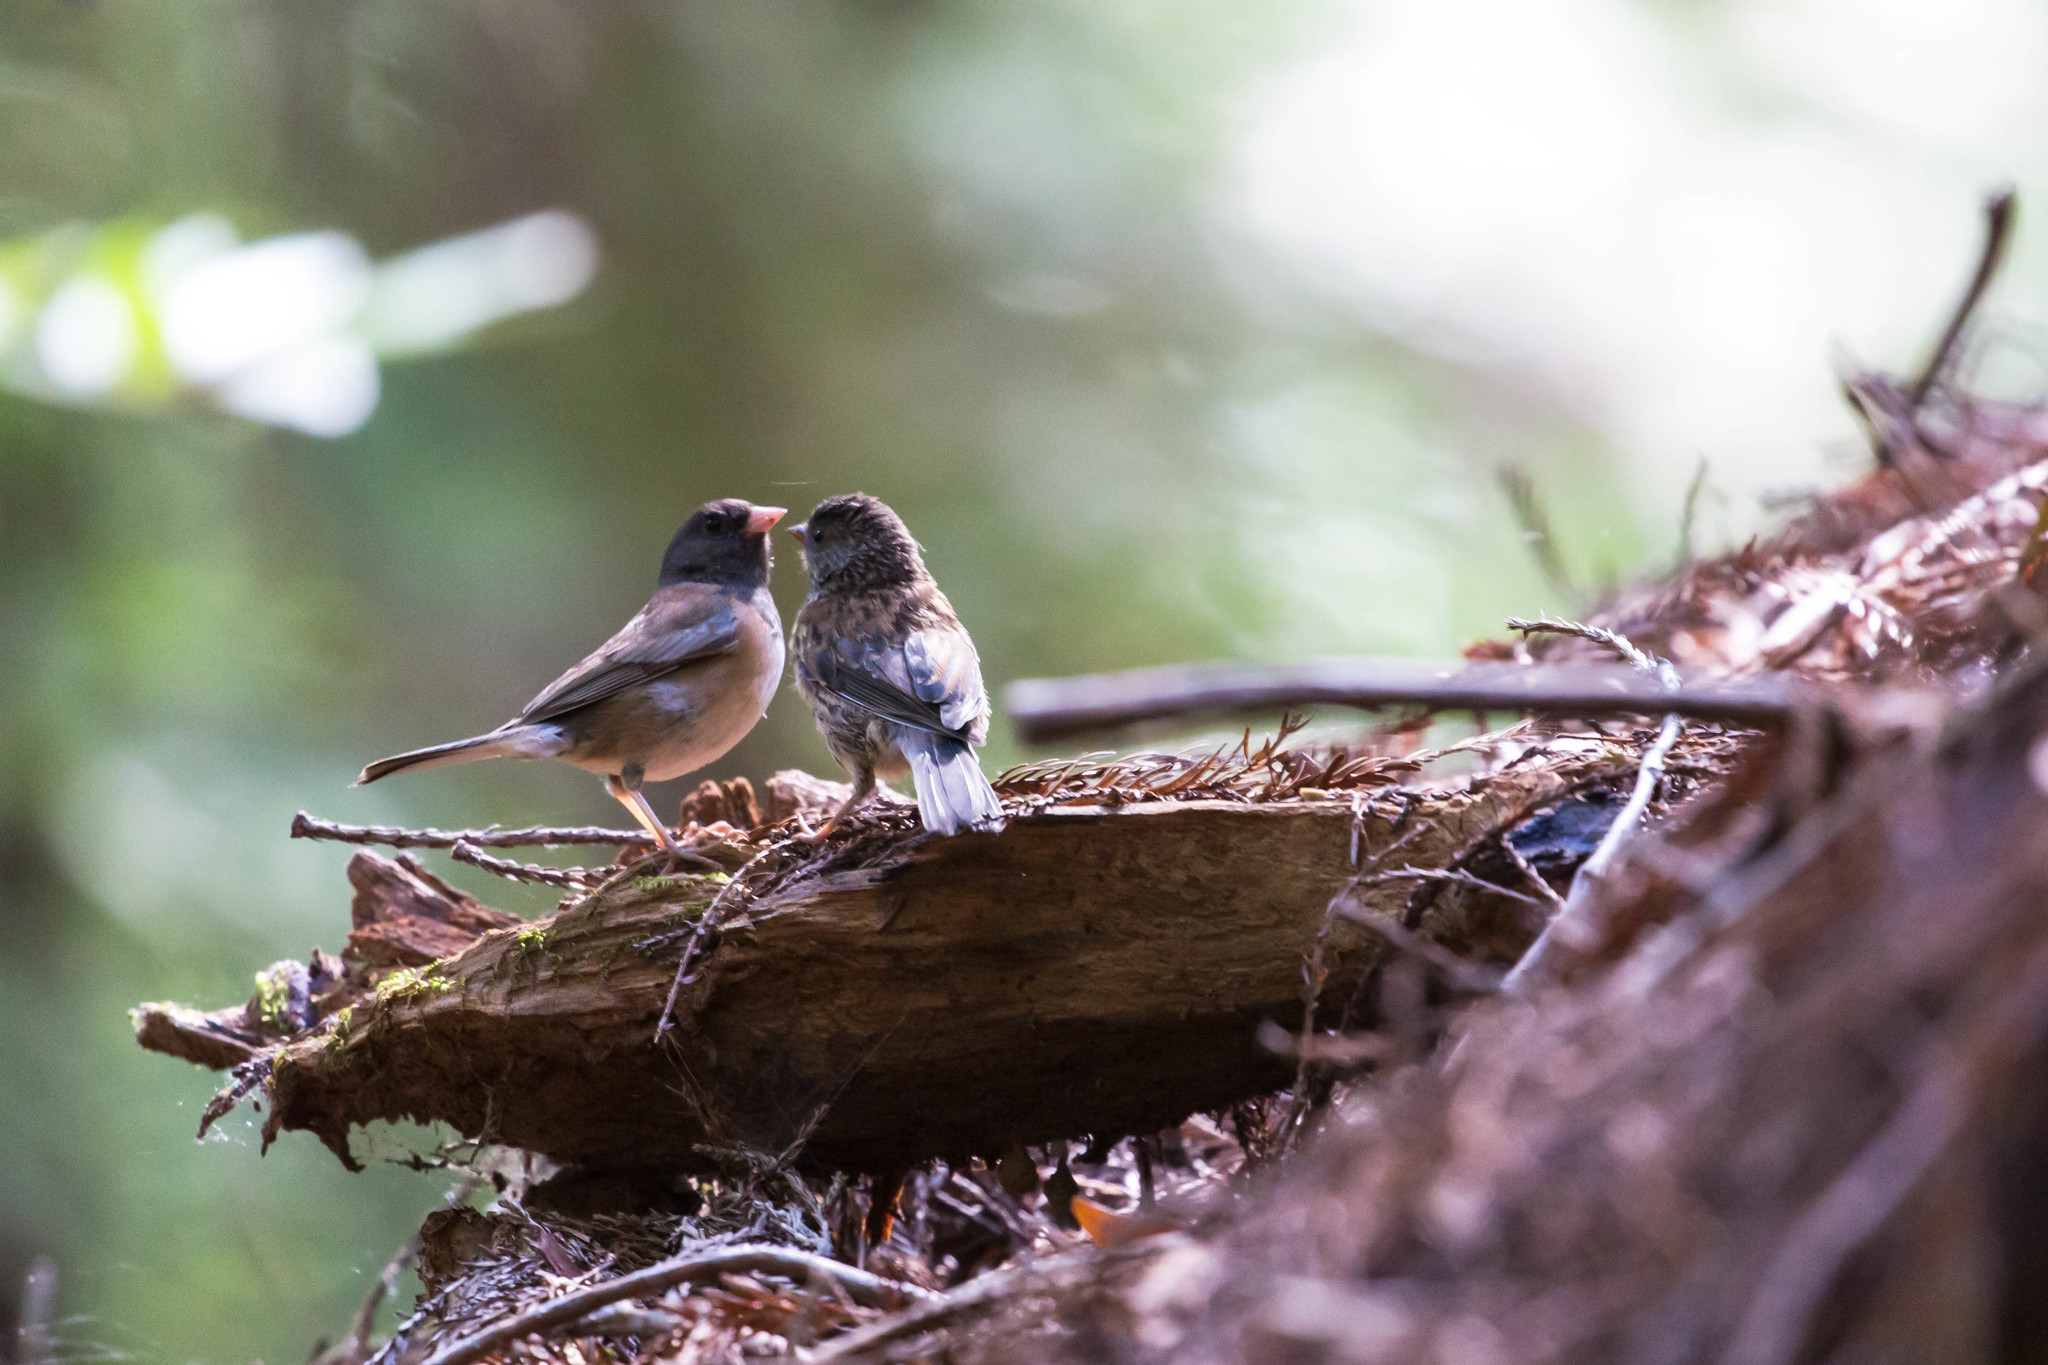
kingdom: Animalia
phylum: Chordata
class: Aves
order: Passeriformes
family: Passerellidae
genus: Junco
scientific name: Junco hyemalis
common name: Dark-eyed junco
